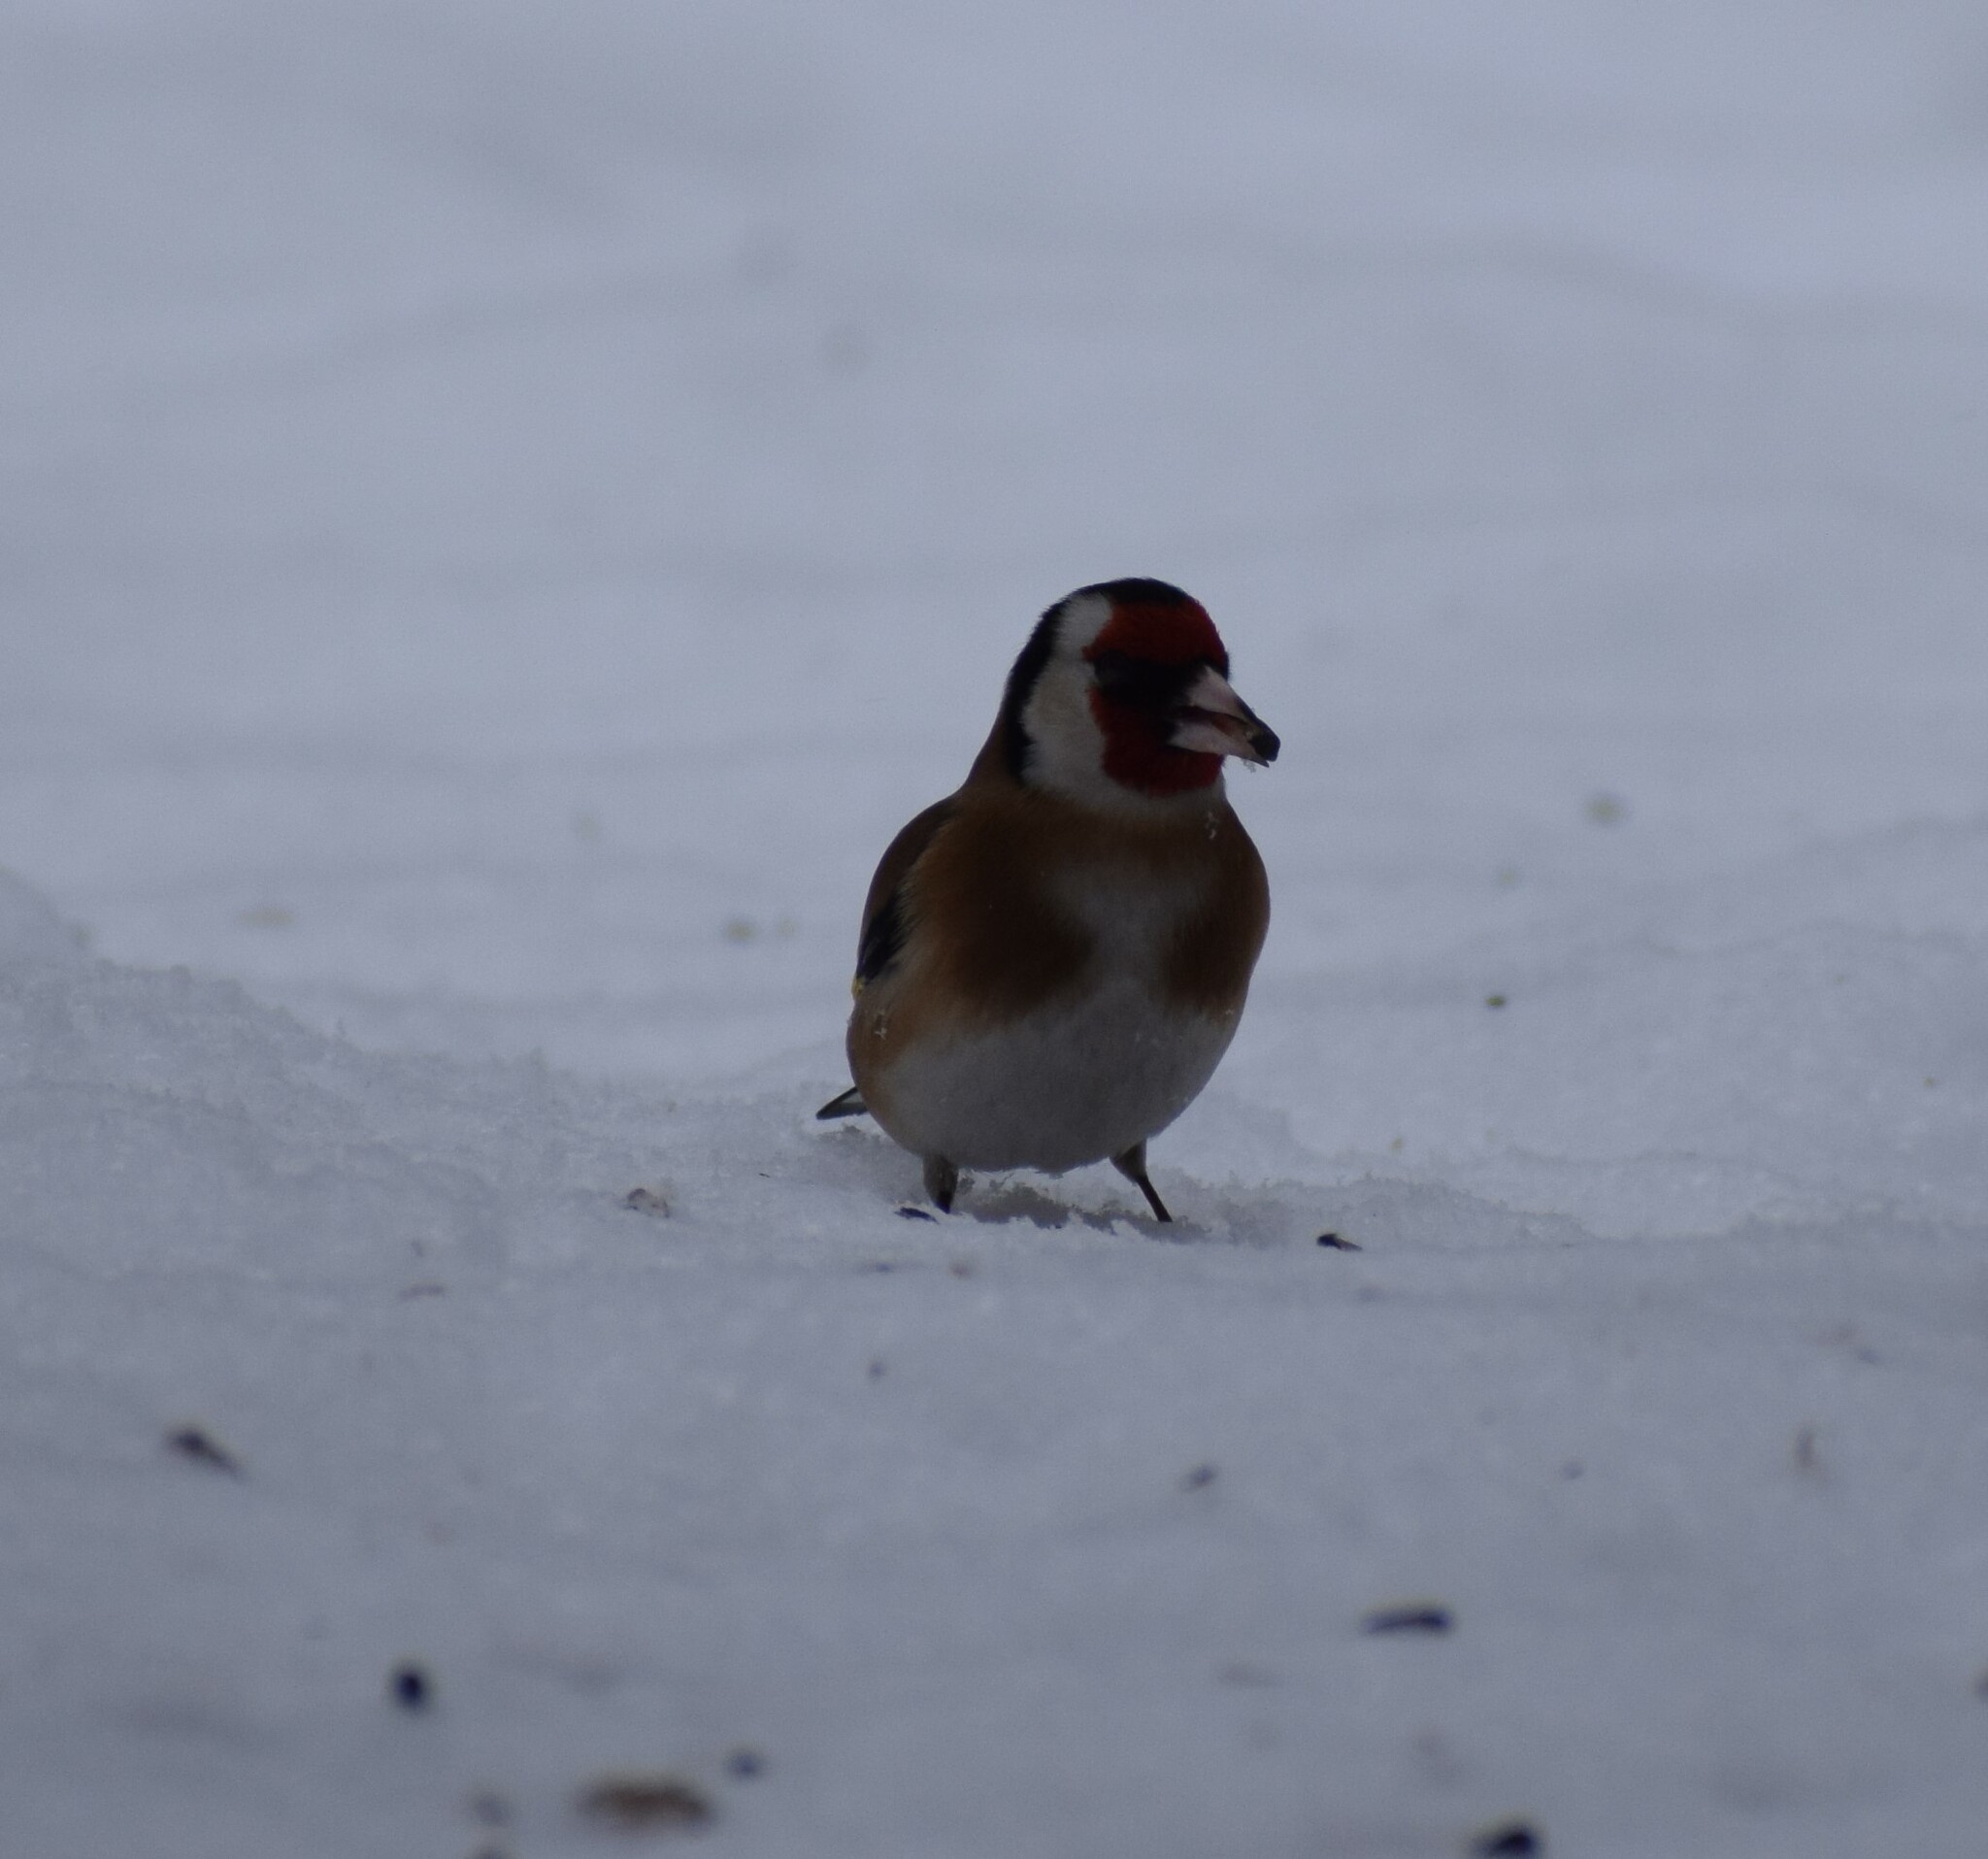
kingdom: Animalia
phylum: Chordata
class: Aves
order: Passeriformes
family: Fringillidae
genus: Carduelis
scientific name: Carduelis carduelis
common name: European goldfinch
